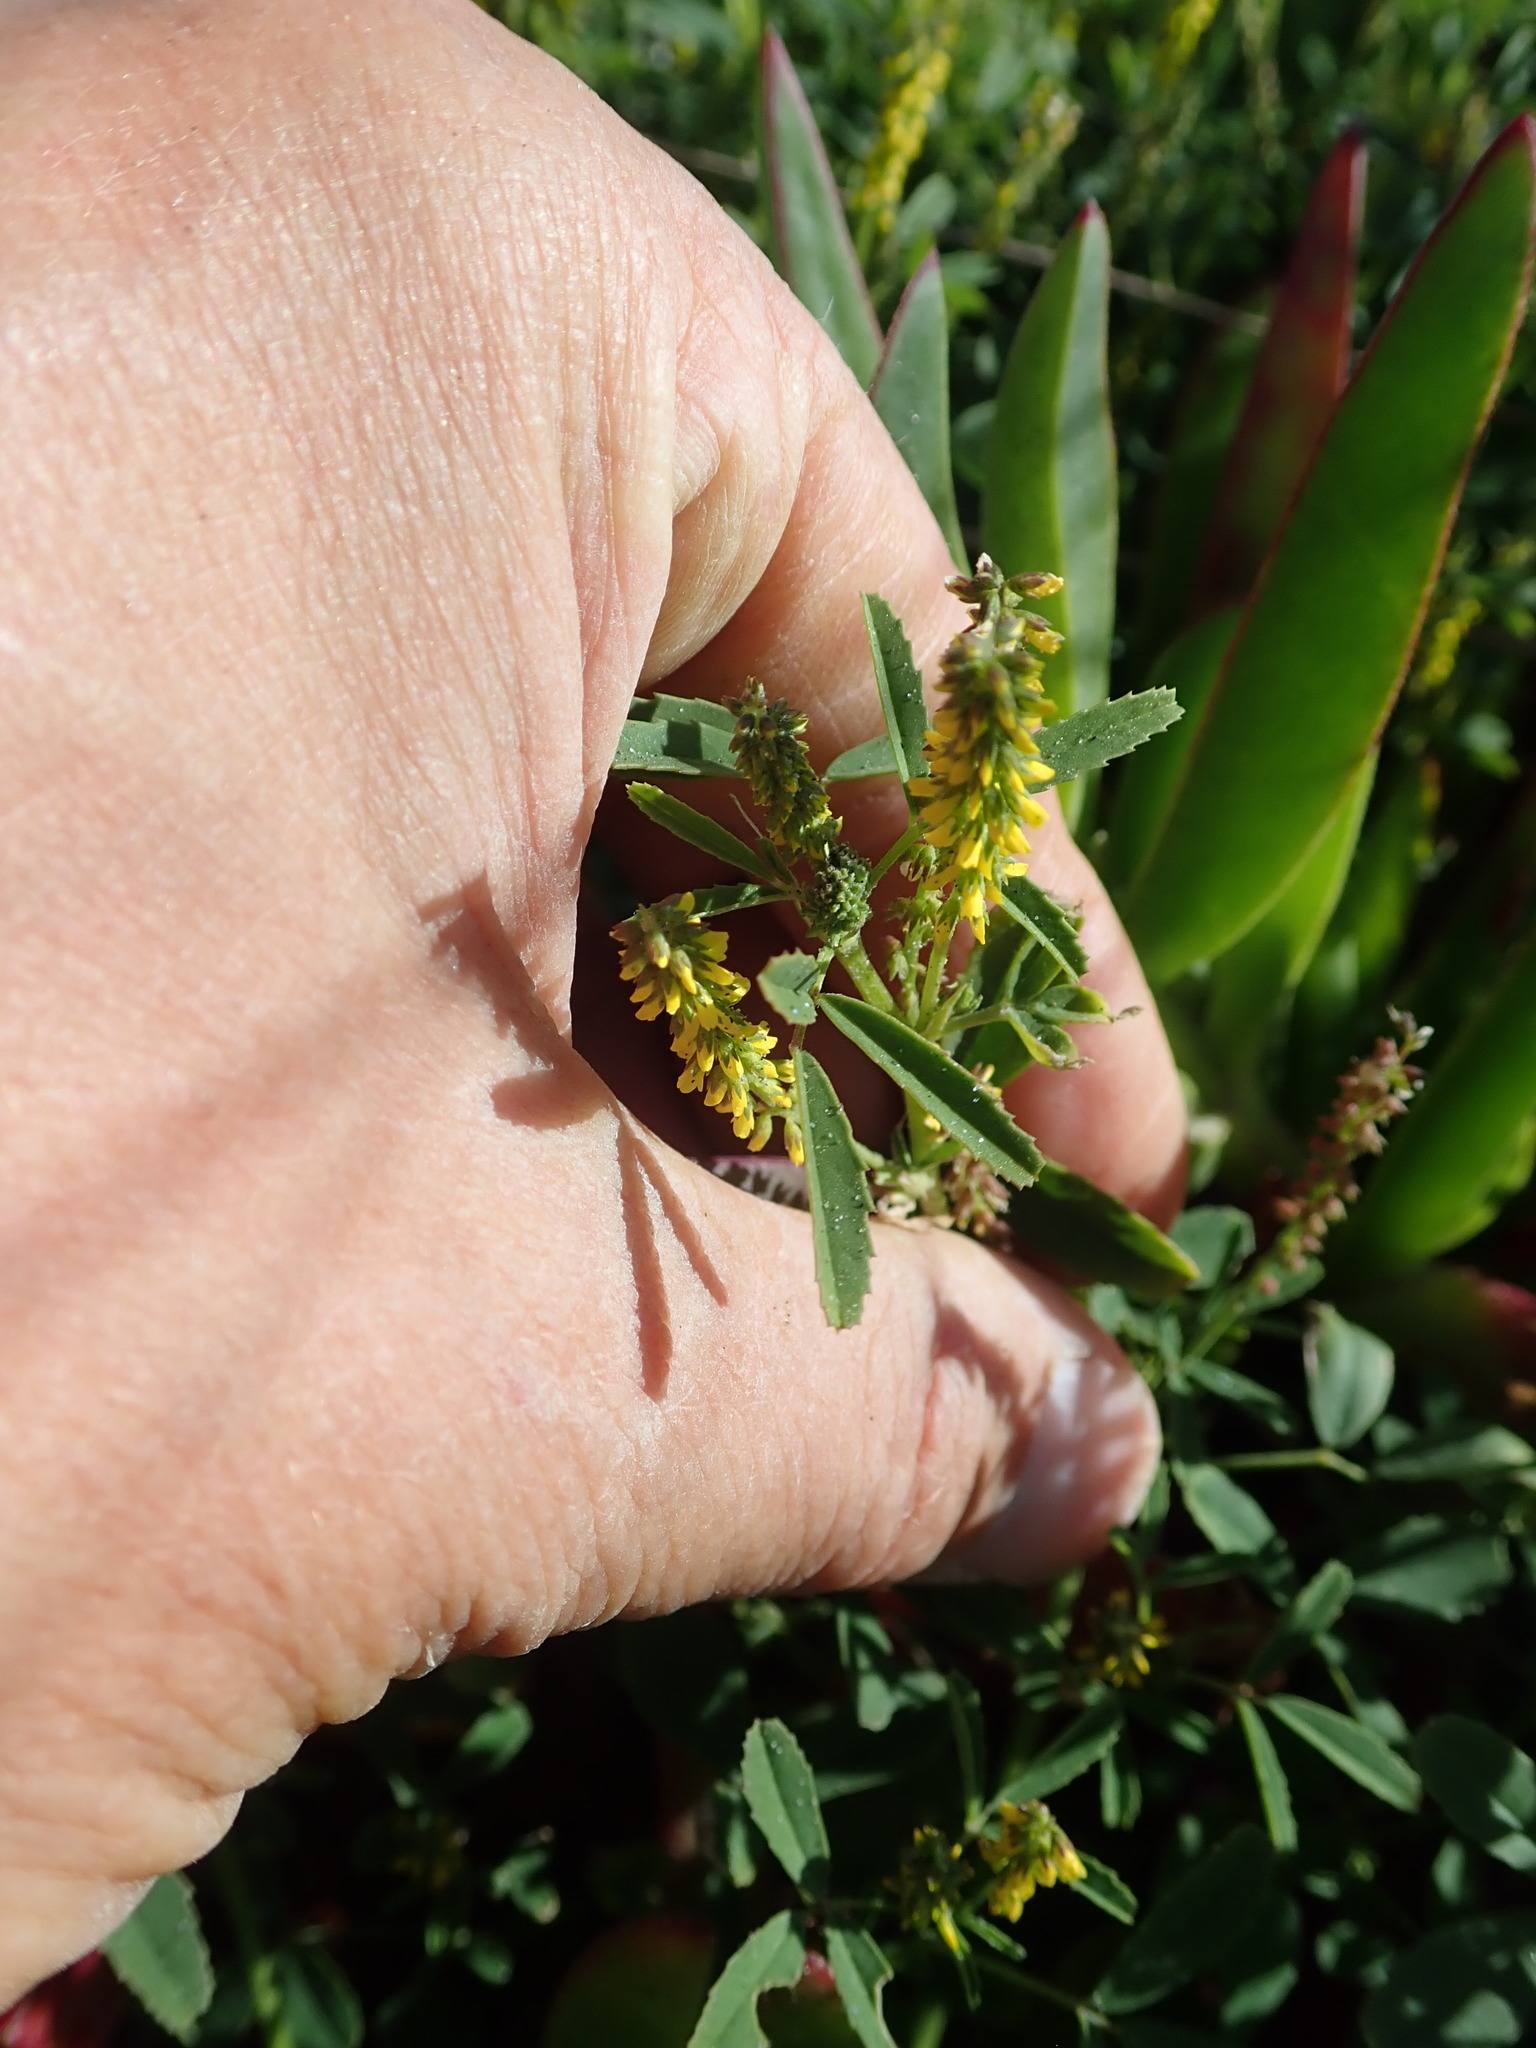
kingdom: Plantae
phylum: Tracheophyta
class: Magnoliopsida
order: Fabales
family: Fabaceae
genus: Melilotus
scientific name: Melilotus indicus
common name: Small melilot
